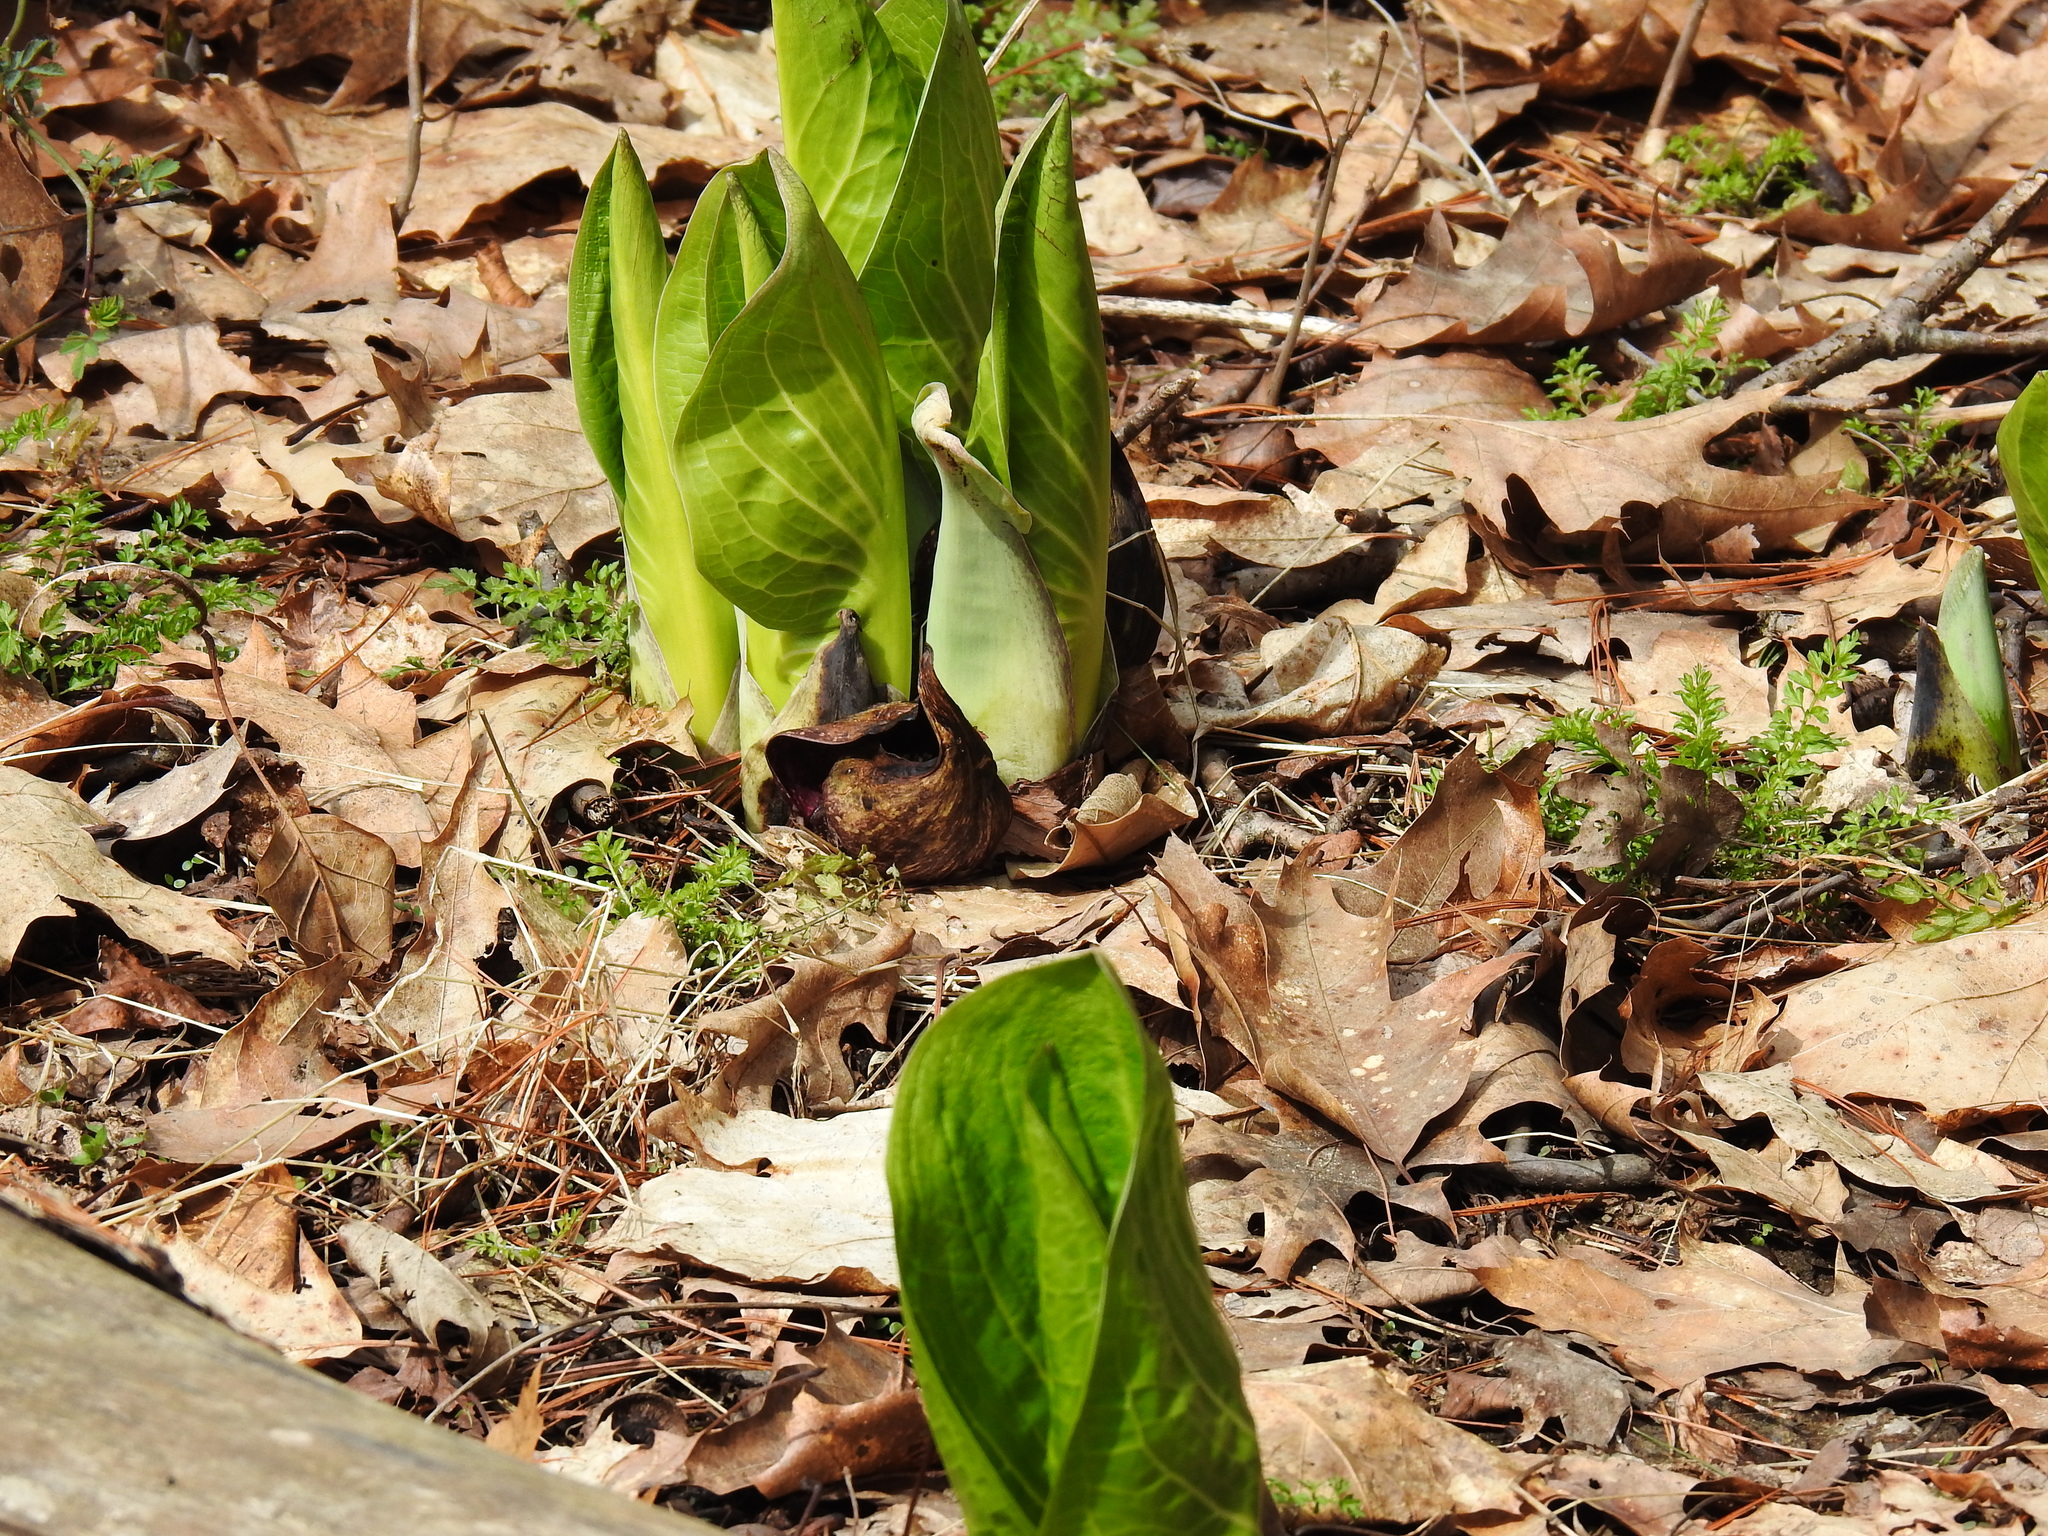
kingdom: Plantae
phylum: Tracheophyta
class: Liliopsida
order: Alismatales
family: Araceae
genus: Symplocarpus
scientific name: Symplocarpus foetidus
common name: Eastern skunk cabbage
